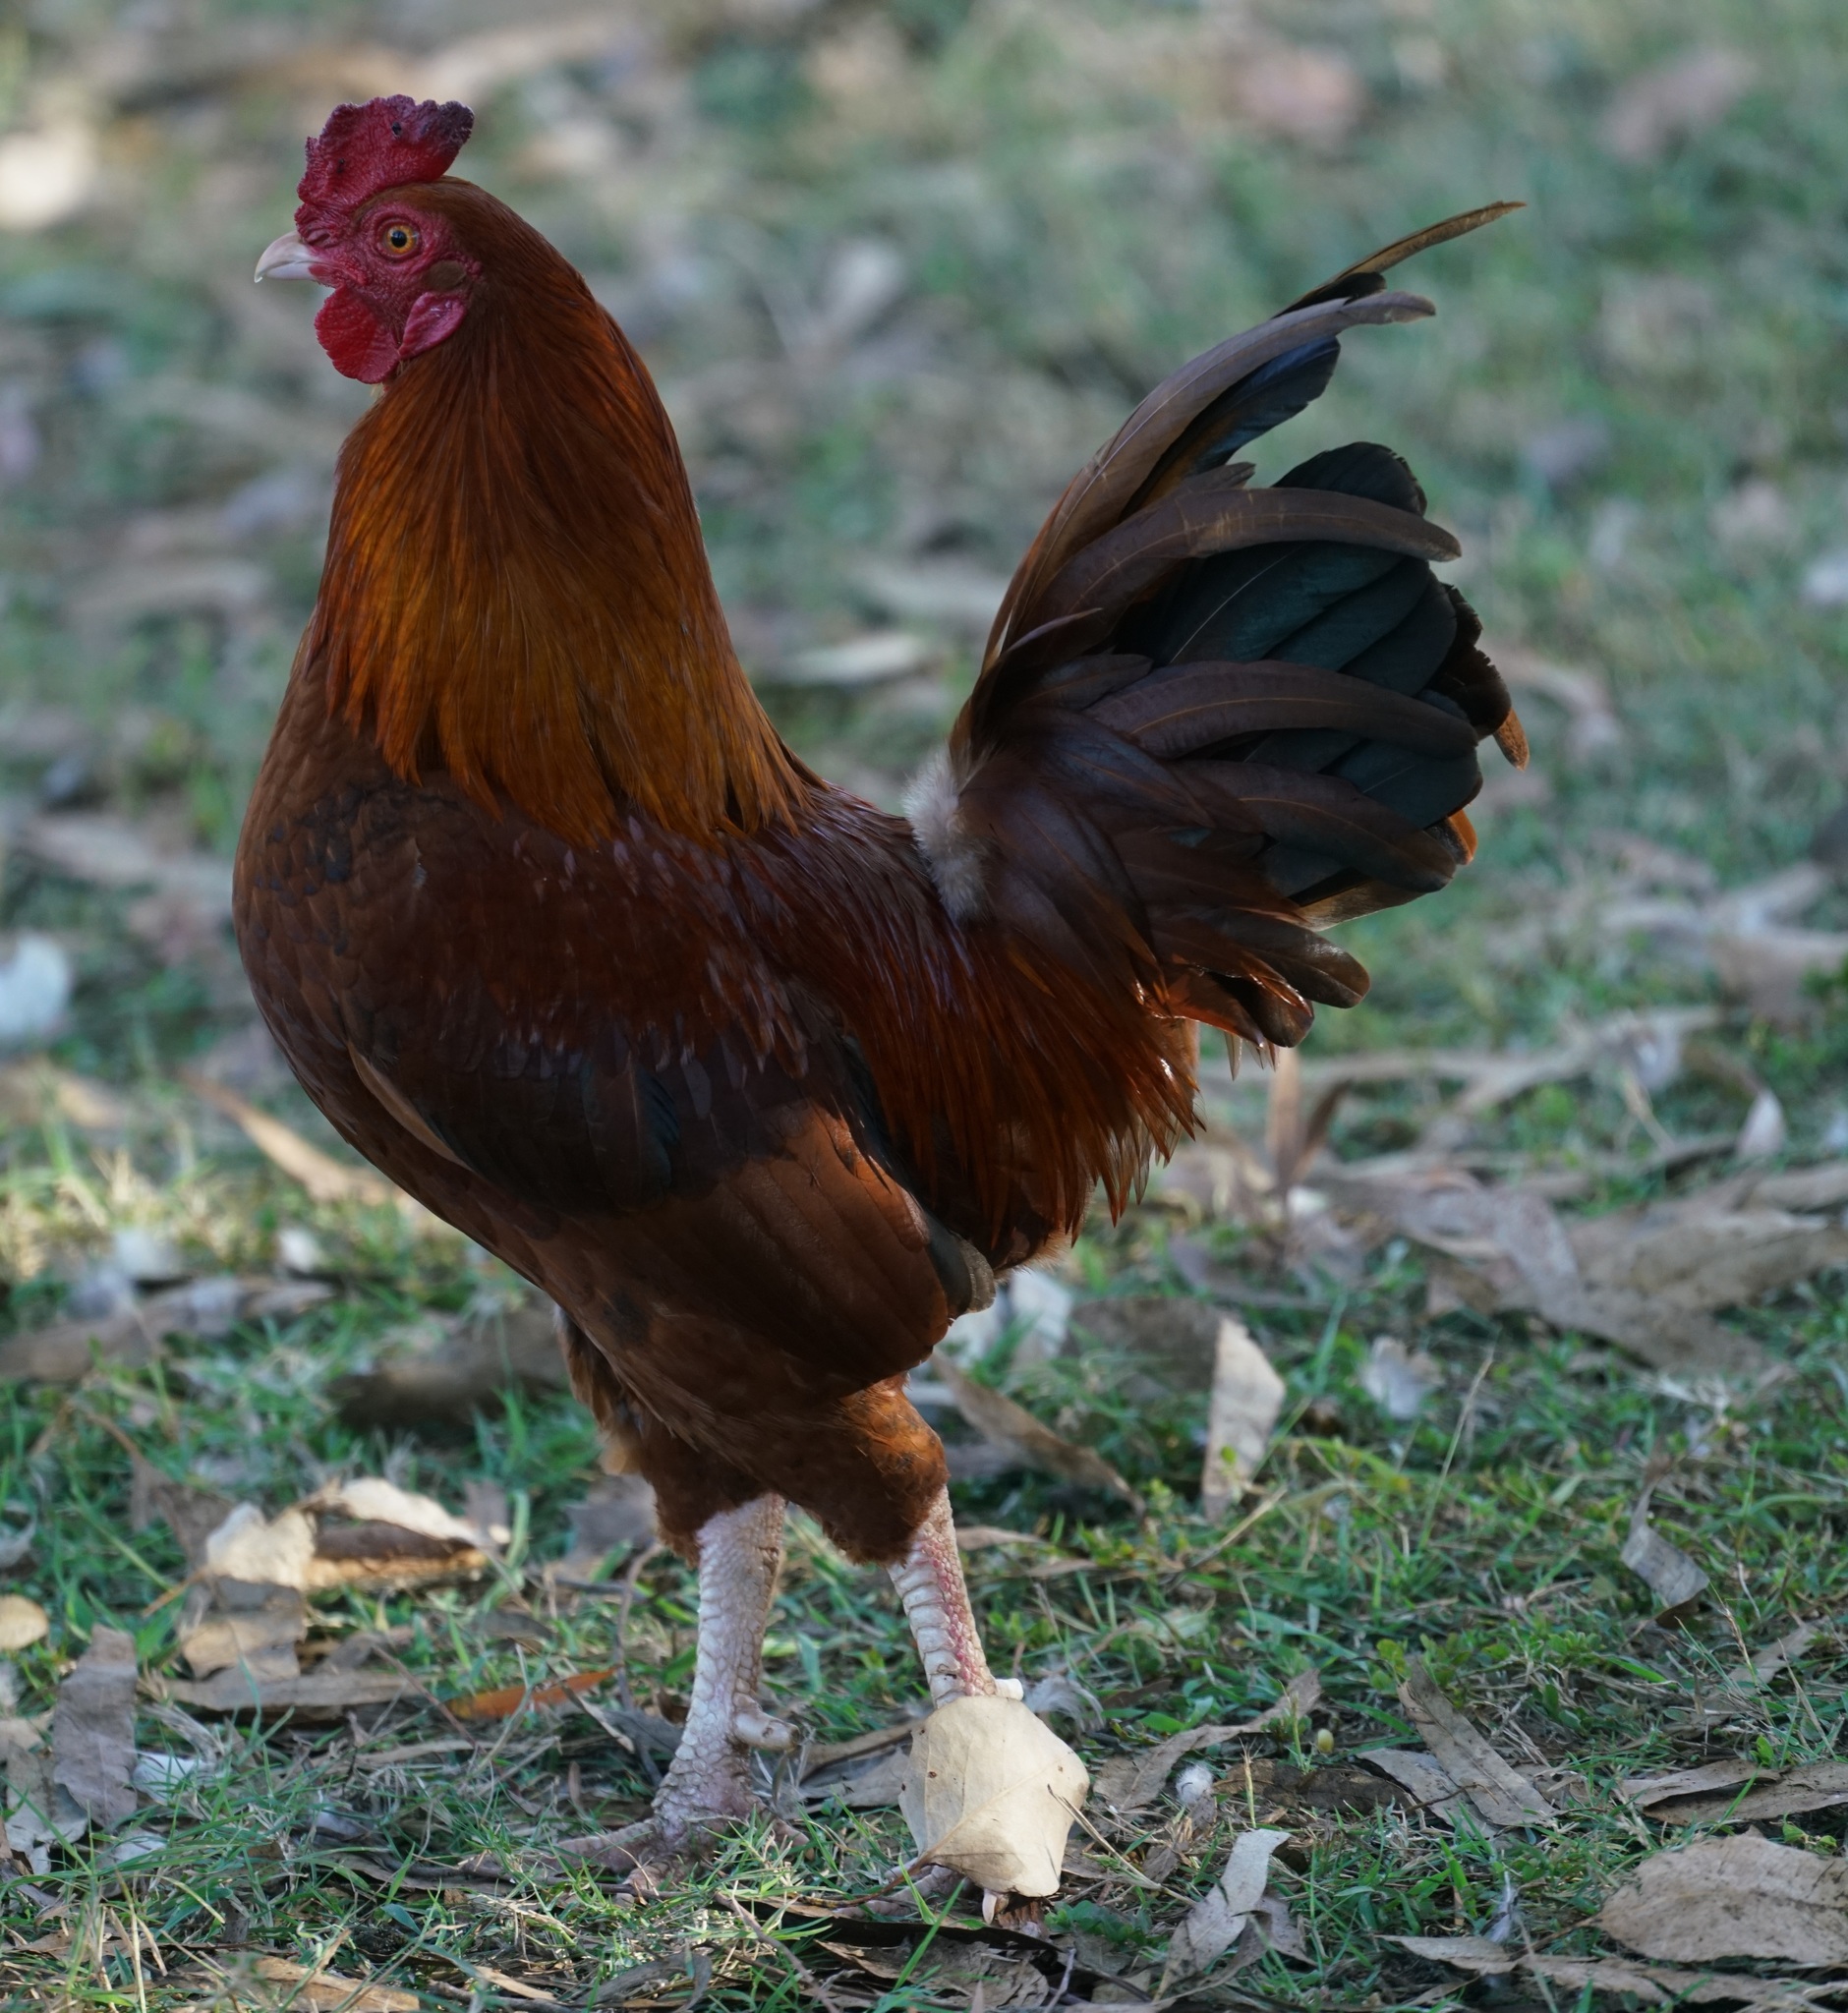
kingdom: Animalia
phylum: Chordata
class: Aves
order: Galliformes
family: Phasianidae
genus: Gallus
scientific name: Gallus gallus
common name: Red junglefowl
